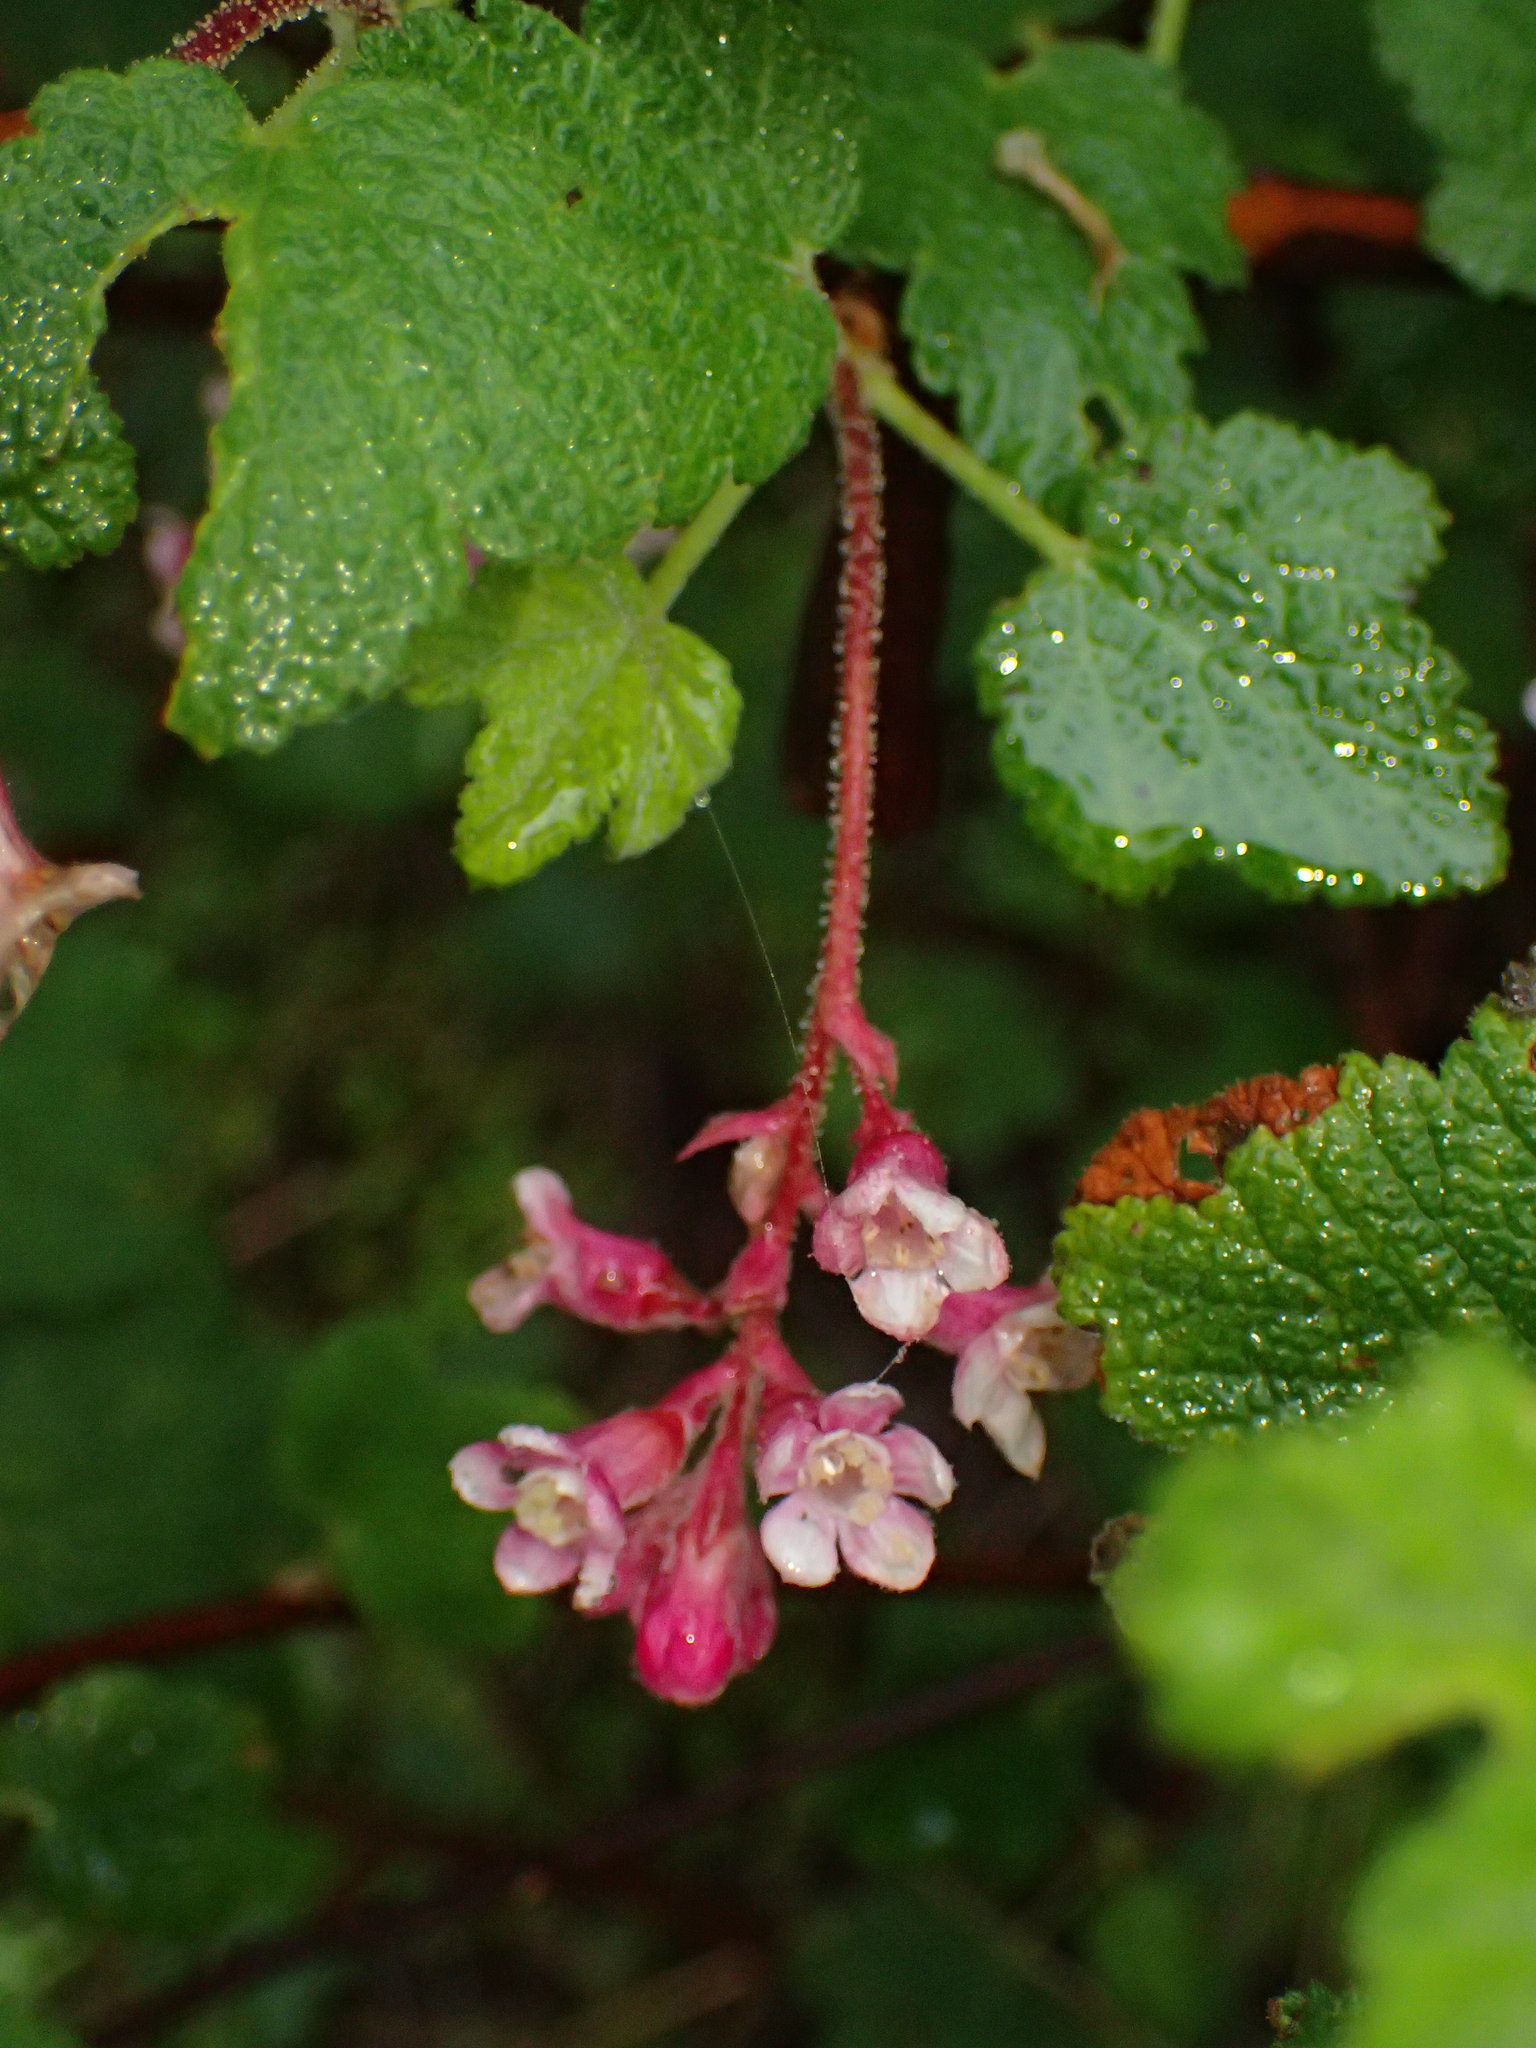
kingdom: Plantae
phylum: Tracheophyta
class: Magnoliopsida
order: Saxifragales
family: Grossulariaceae
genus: Ribes
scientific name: Ribes malvaceum
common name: Chaparral currant
